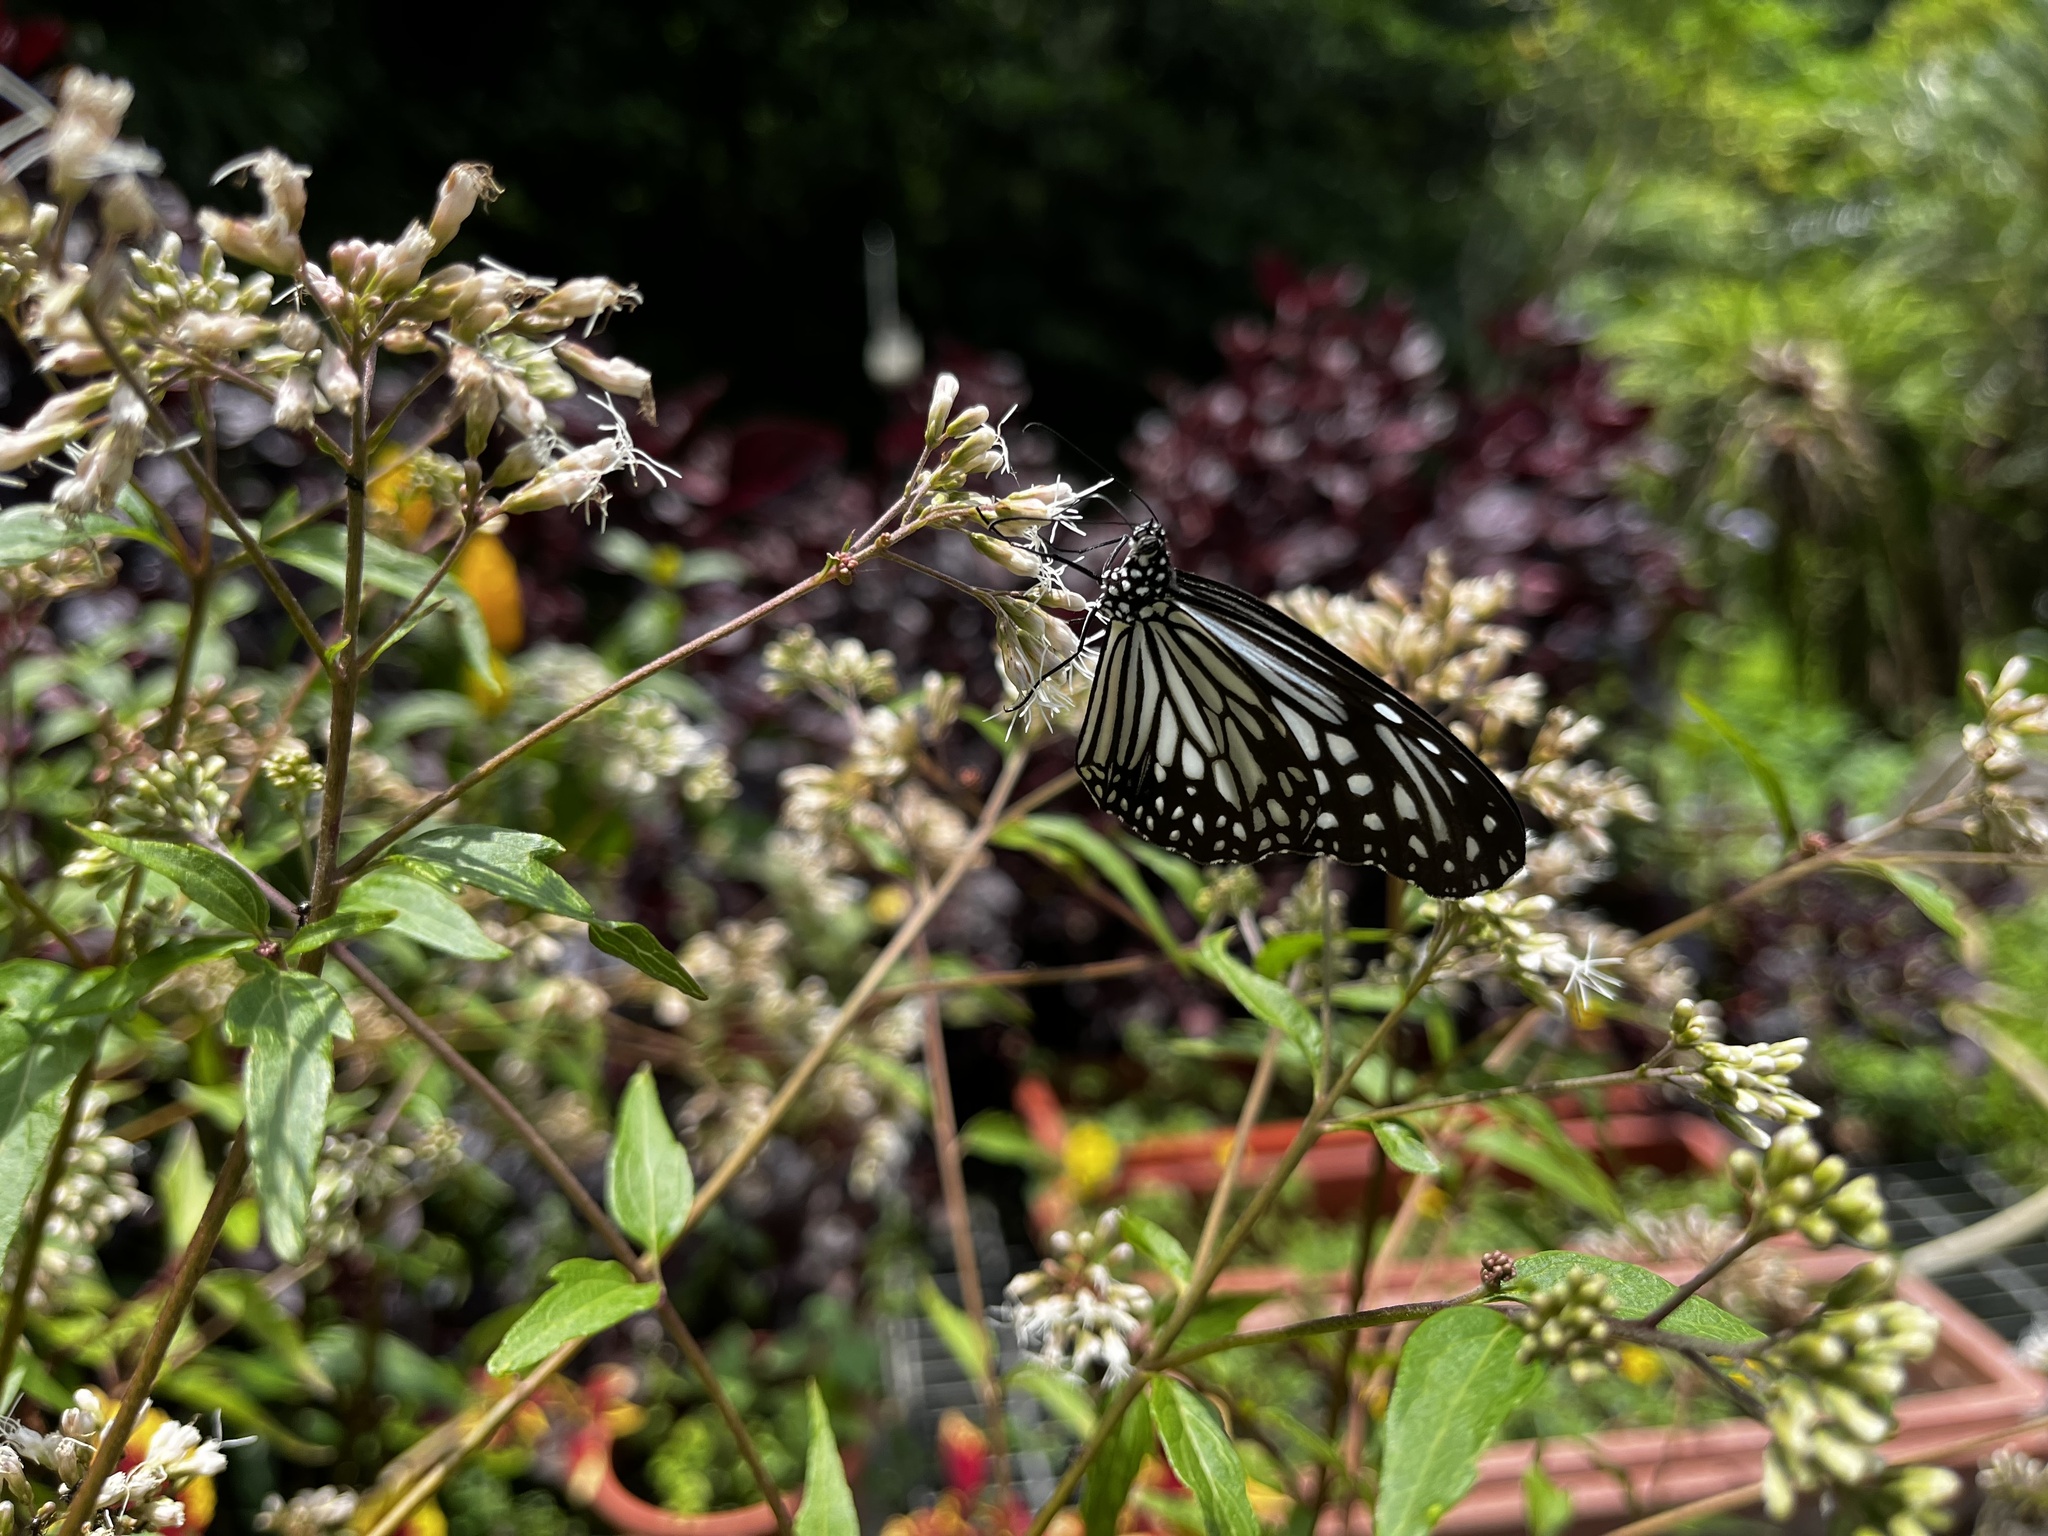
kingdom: Animalia
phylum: Arthropoda
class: Insecta
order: Lepidoptera
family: Nymphalidae
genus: Parantica
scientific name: Parantica aglea
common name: Glassy tiger
